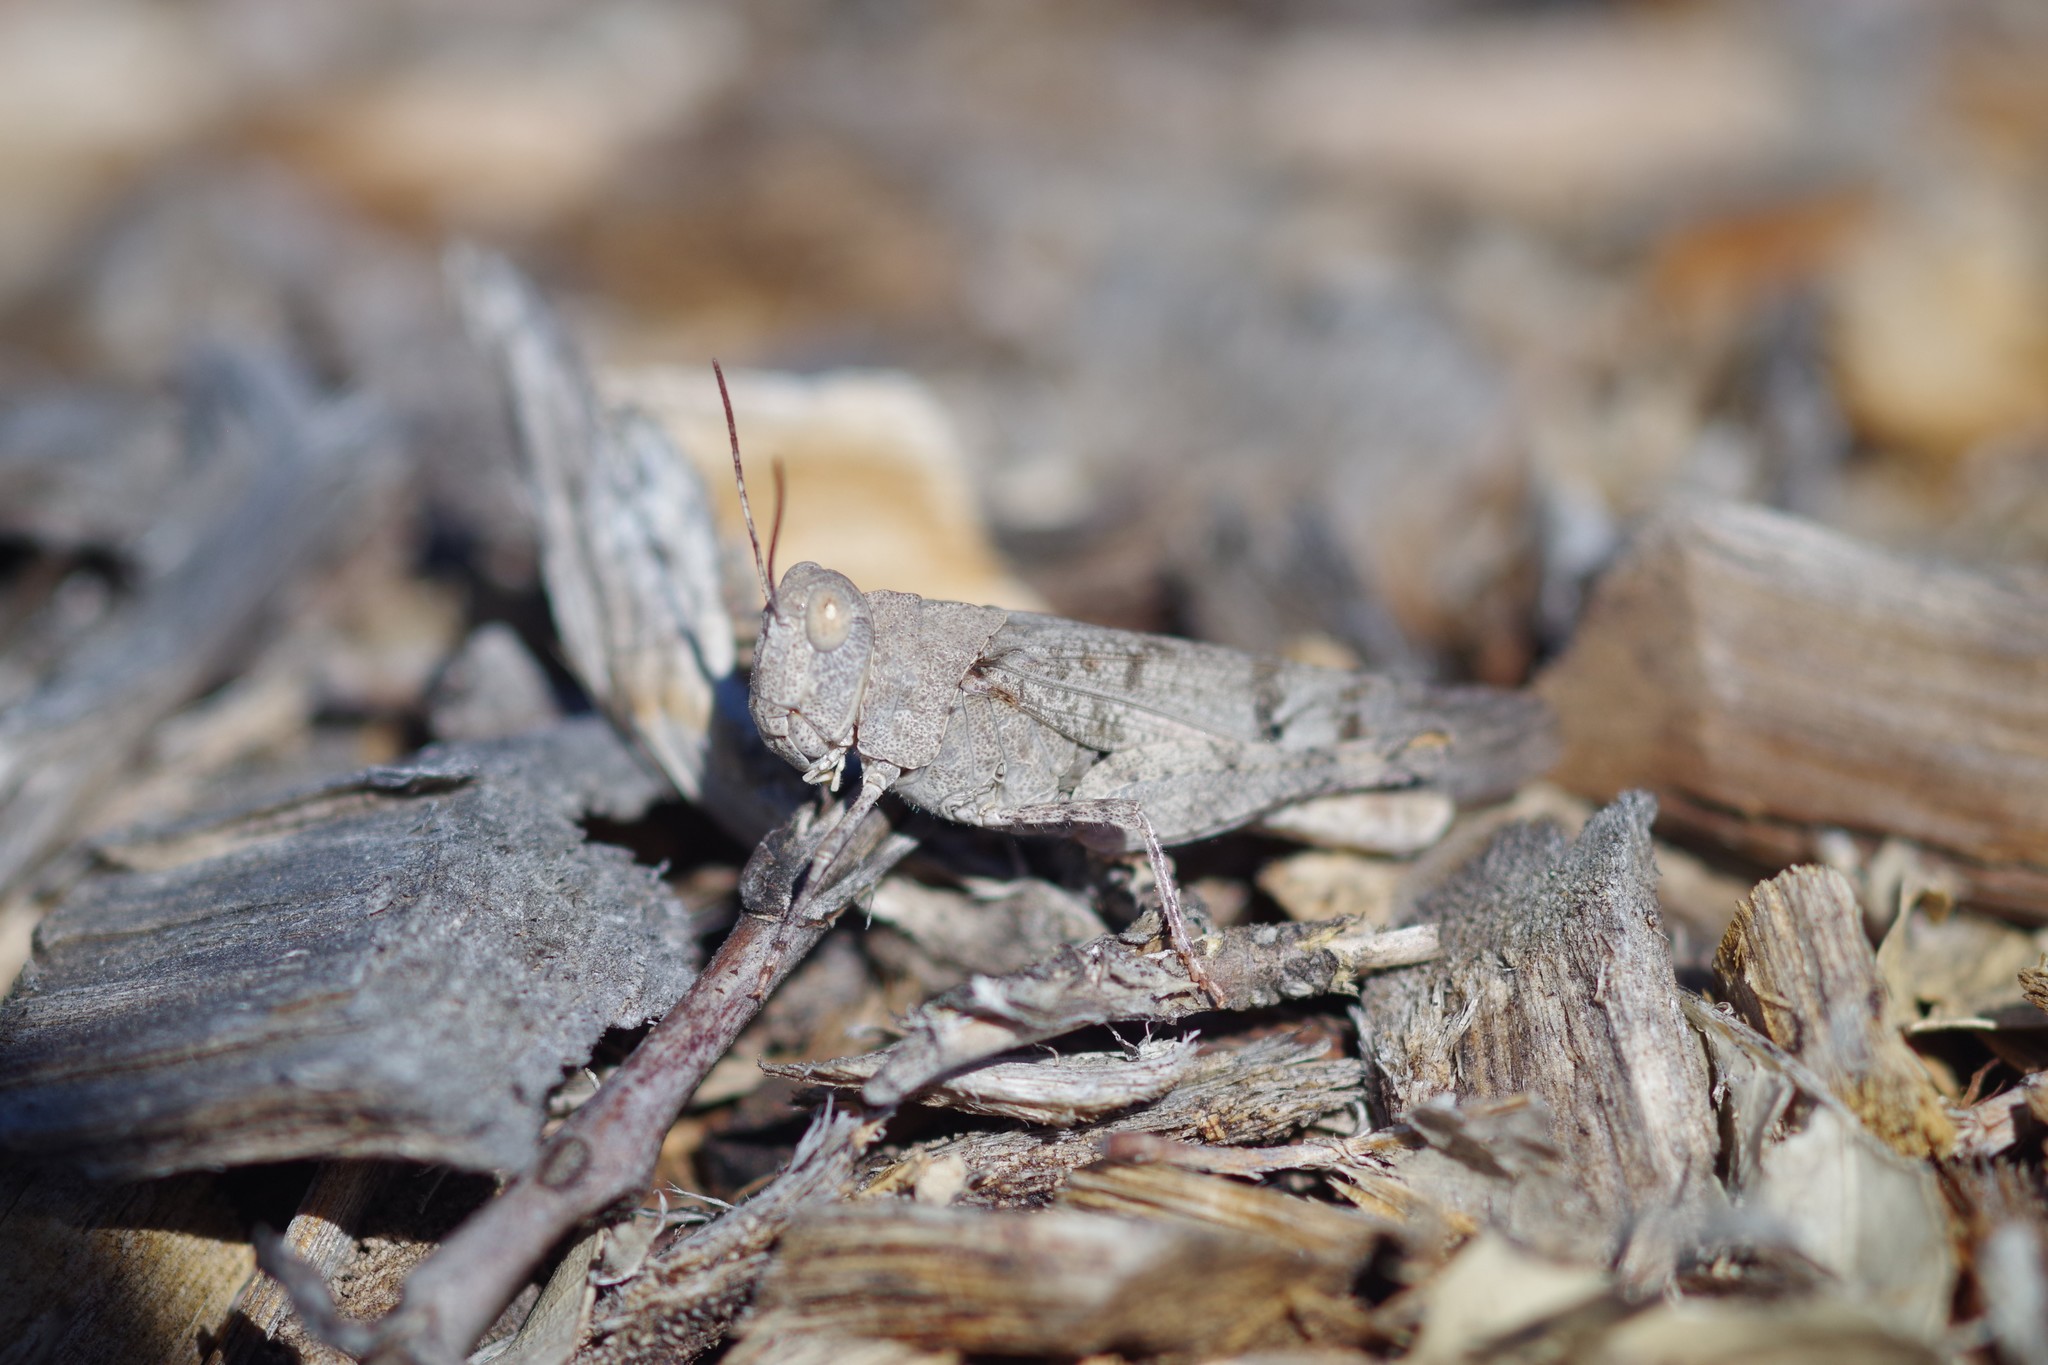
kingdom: Animalia
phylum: Arthropoda
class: Insecta
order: Orthoptera
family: Acrididae
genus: Dissosteira
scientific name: Dissosteira pictipennis
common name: California rose-winged grasshopper
